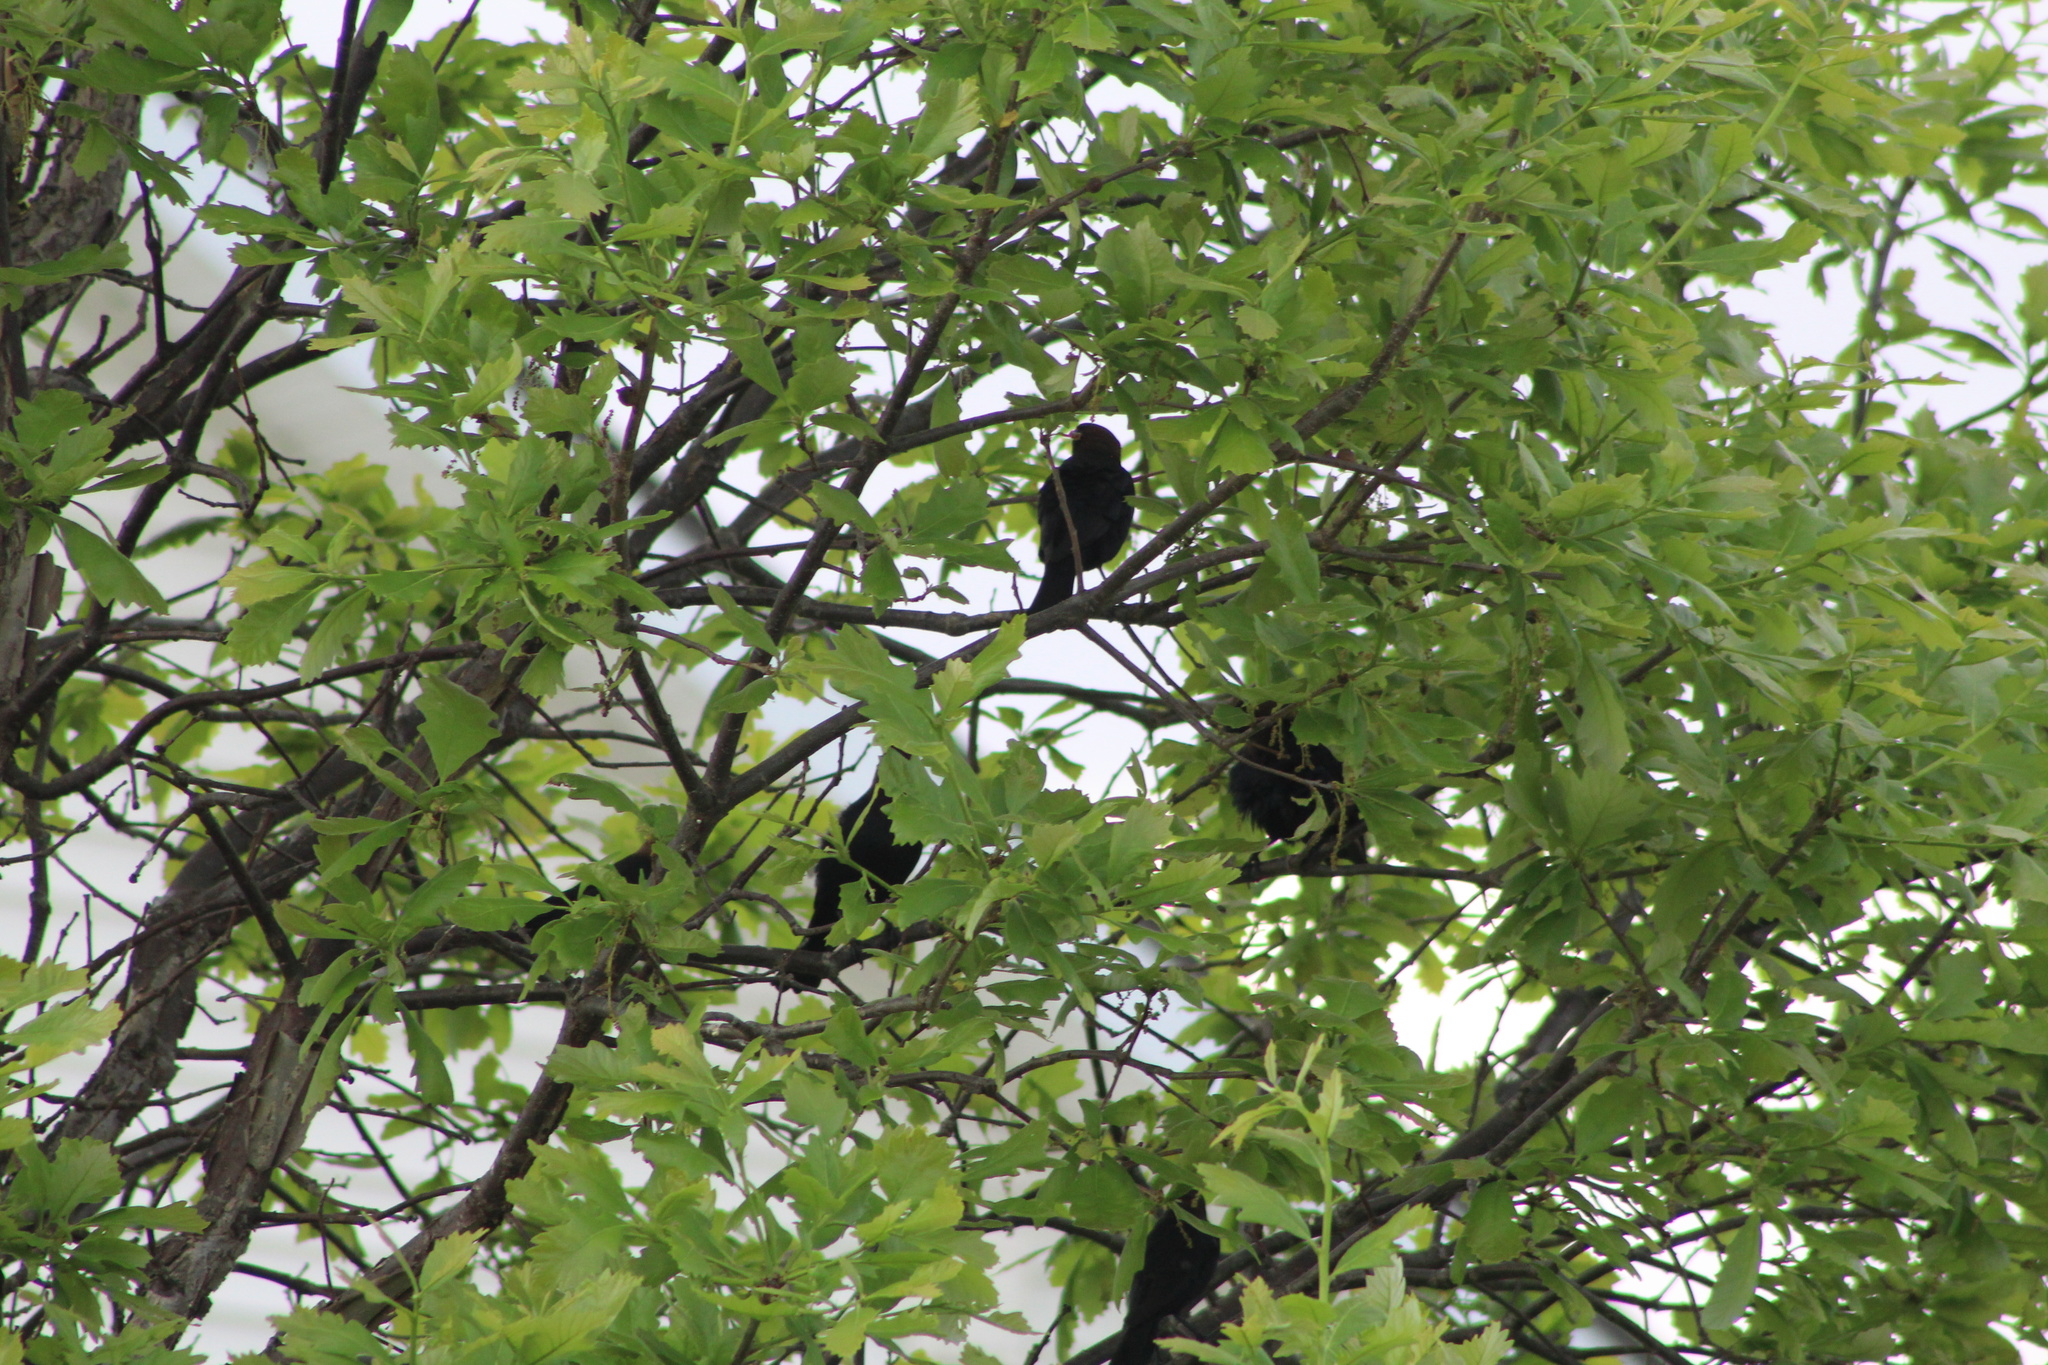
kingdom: Animalia
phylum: Chordata
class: Aves
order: Passeriformes
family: Icteridae
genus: Quiscalus
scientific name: Quiscalus quiscula
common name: Common grackle
